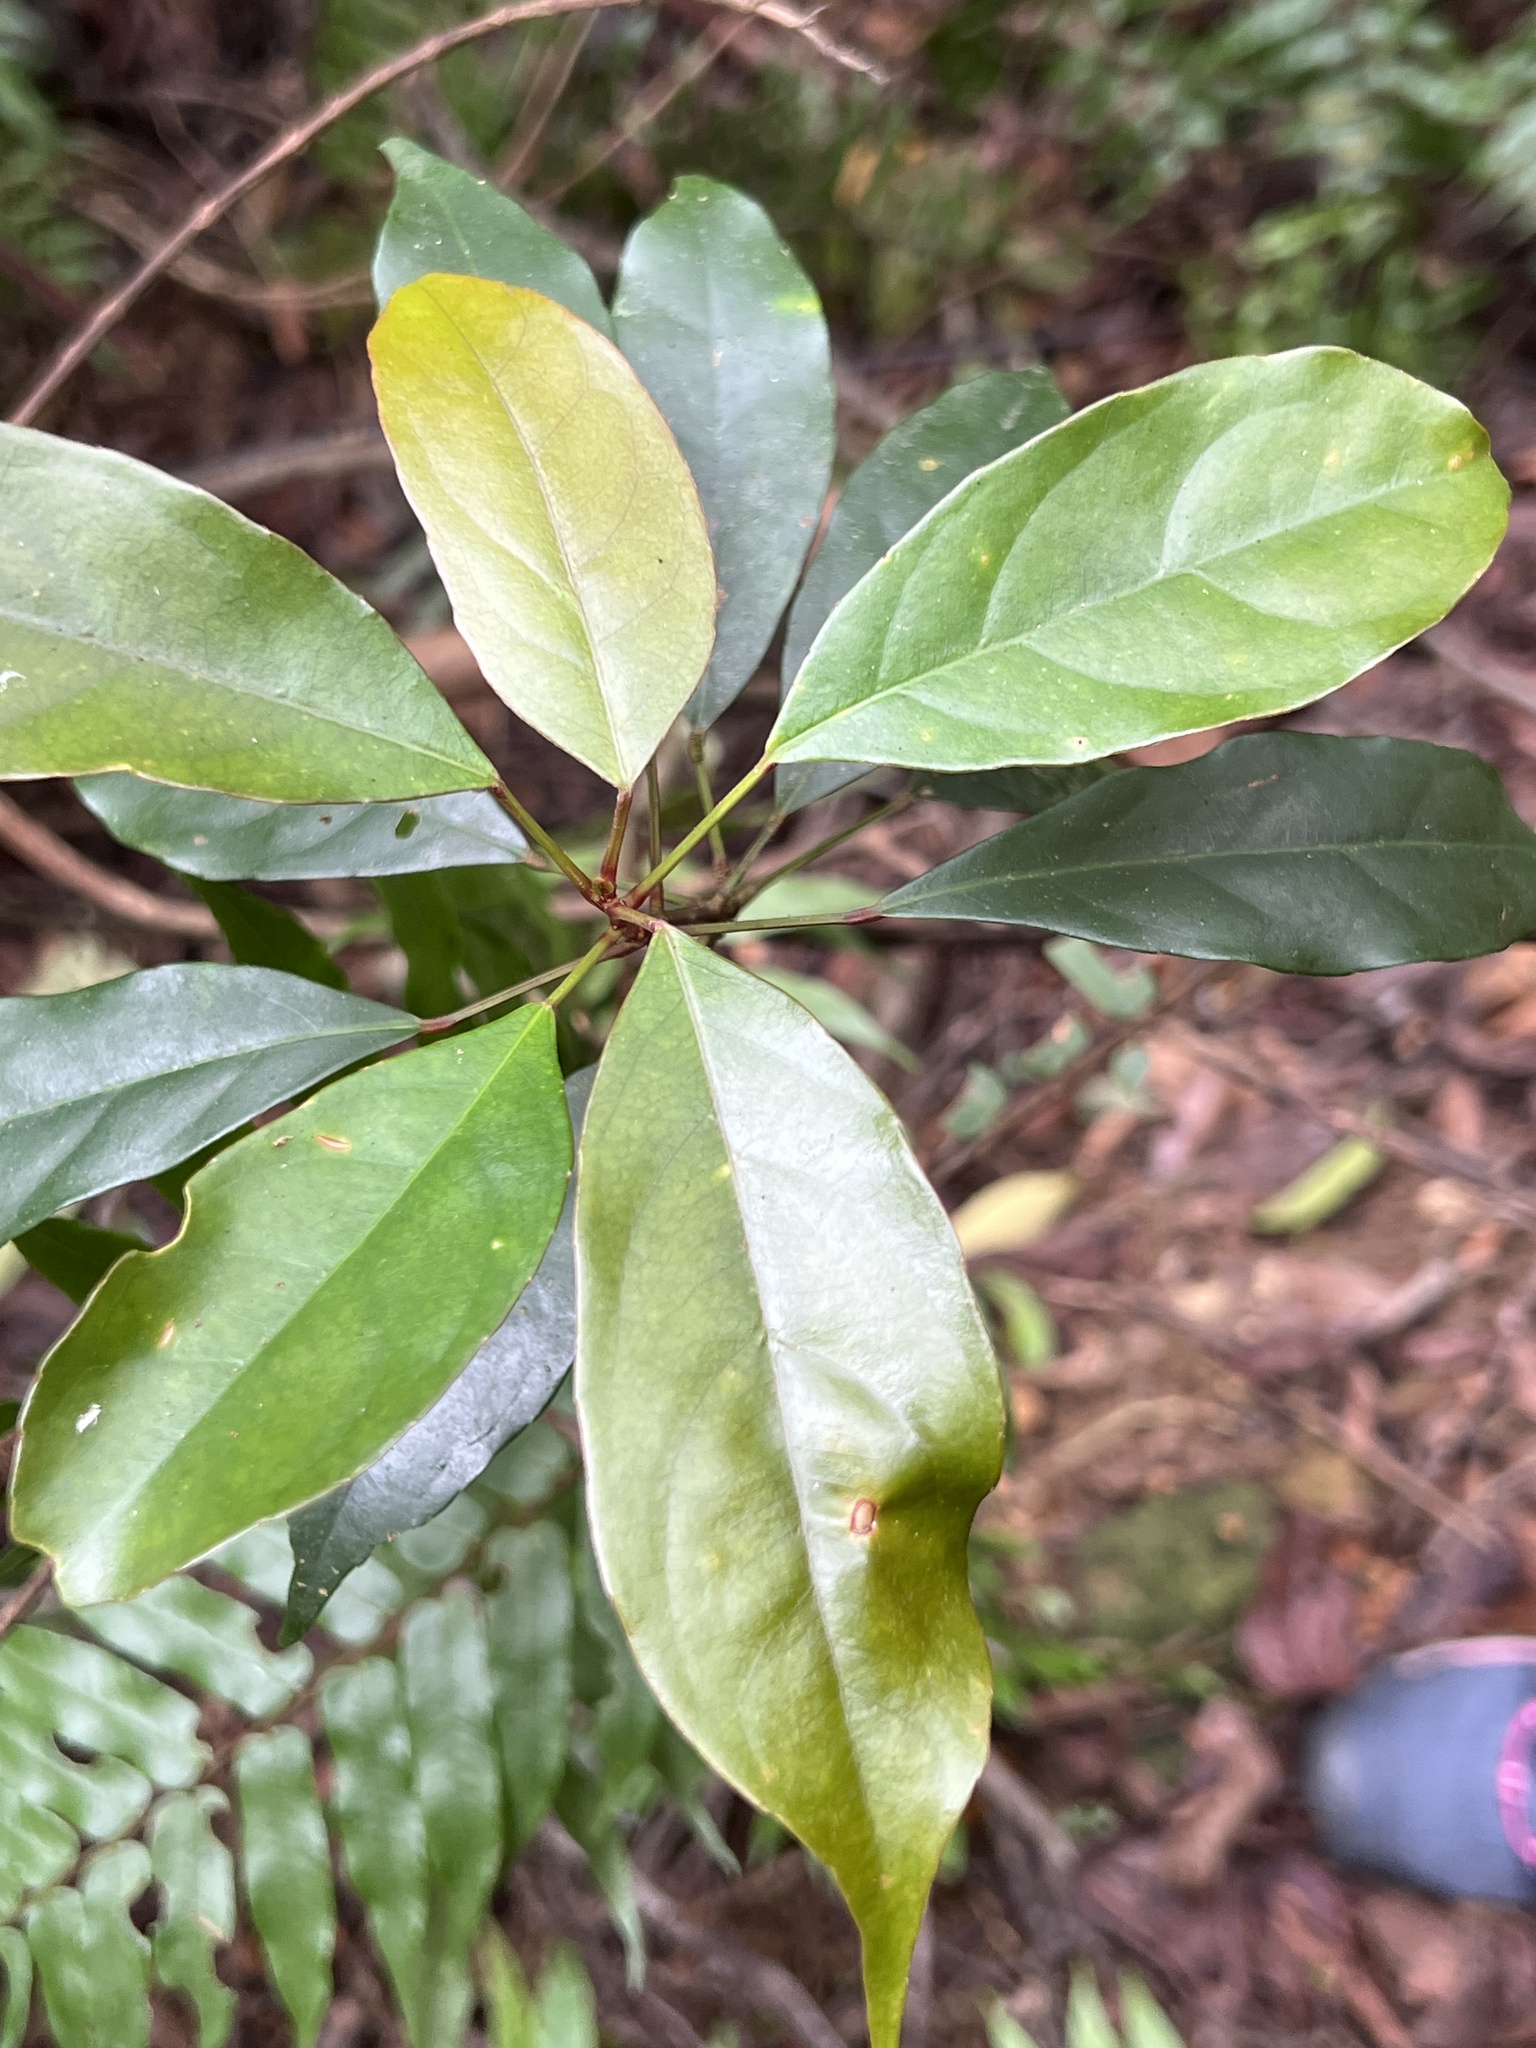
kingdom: Plantae
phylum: Tracheophyta
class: Magnoliopsida
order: Oxalidales
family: Elaeocarpaceae
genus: Elaeocarpus
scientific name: Elaeocarpus japonicus
